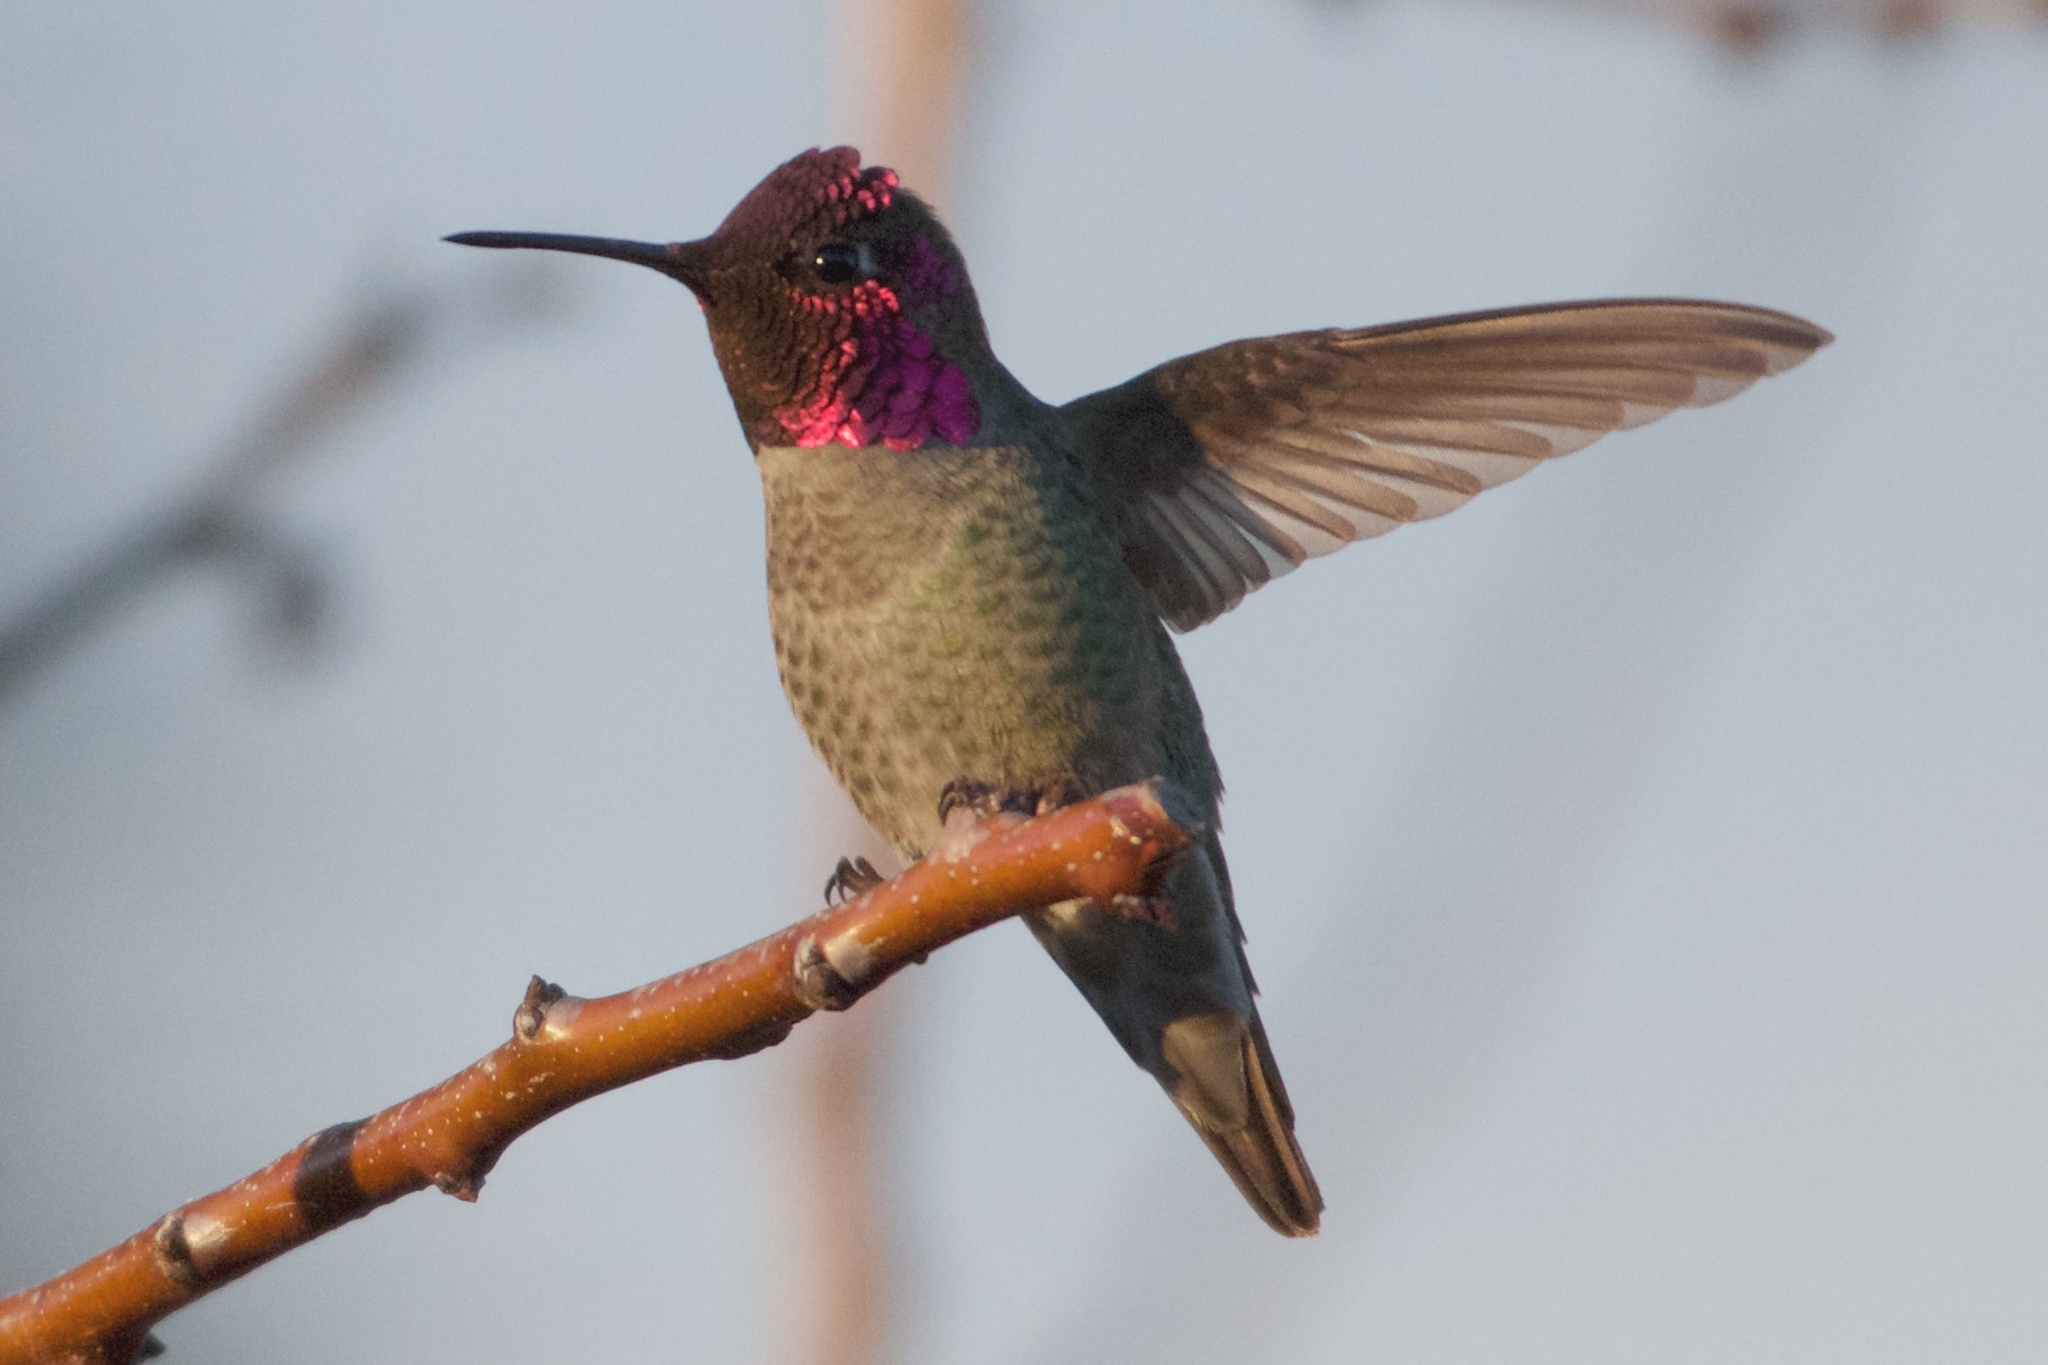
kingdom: Animalia
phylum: Chordata
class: Aves
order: Apodiformes
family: Trochilidae
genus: Calypte
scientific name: Calypte anna
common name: Anna's hummingbird
